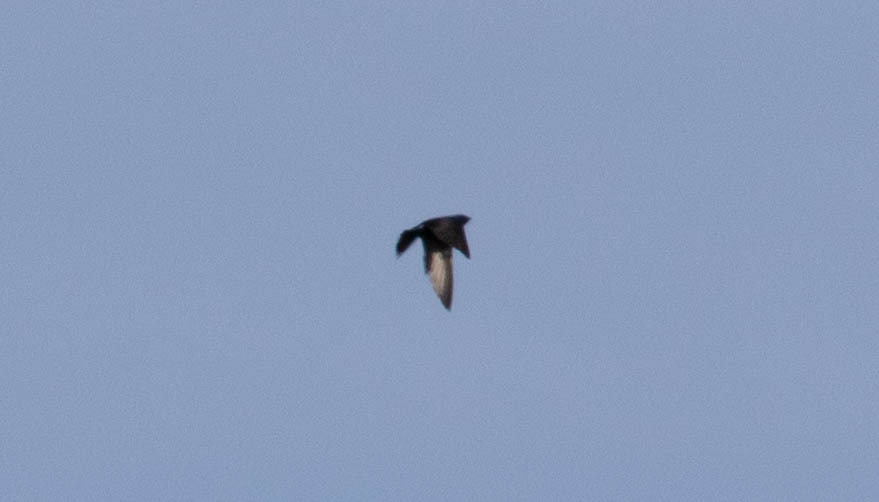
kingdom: Animalia
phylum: Chordata
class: Aves
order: Passeriformes
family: Hirundinidae
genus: Progne
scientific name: Progne subis
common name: Purple martin
